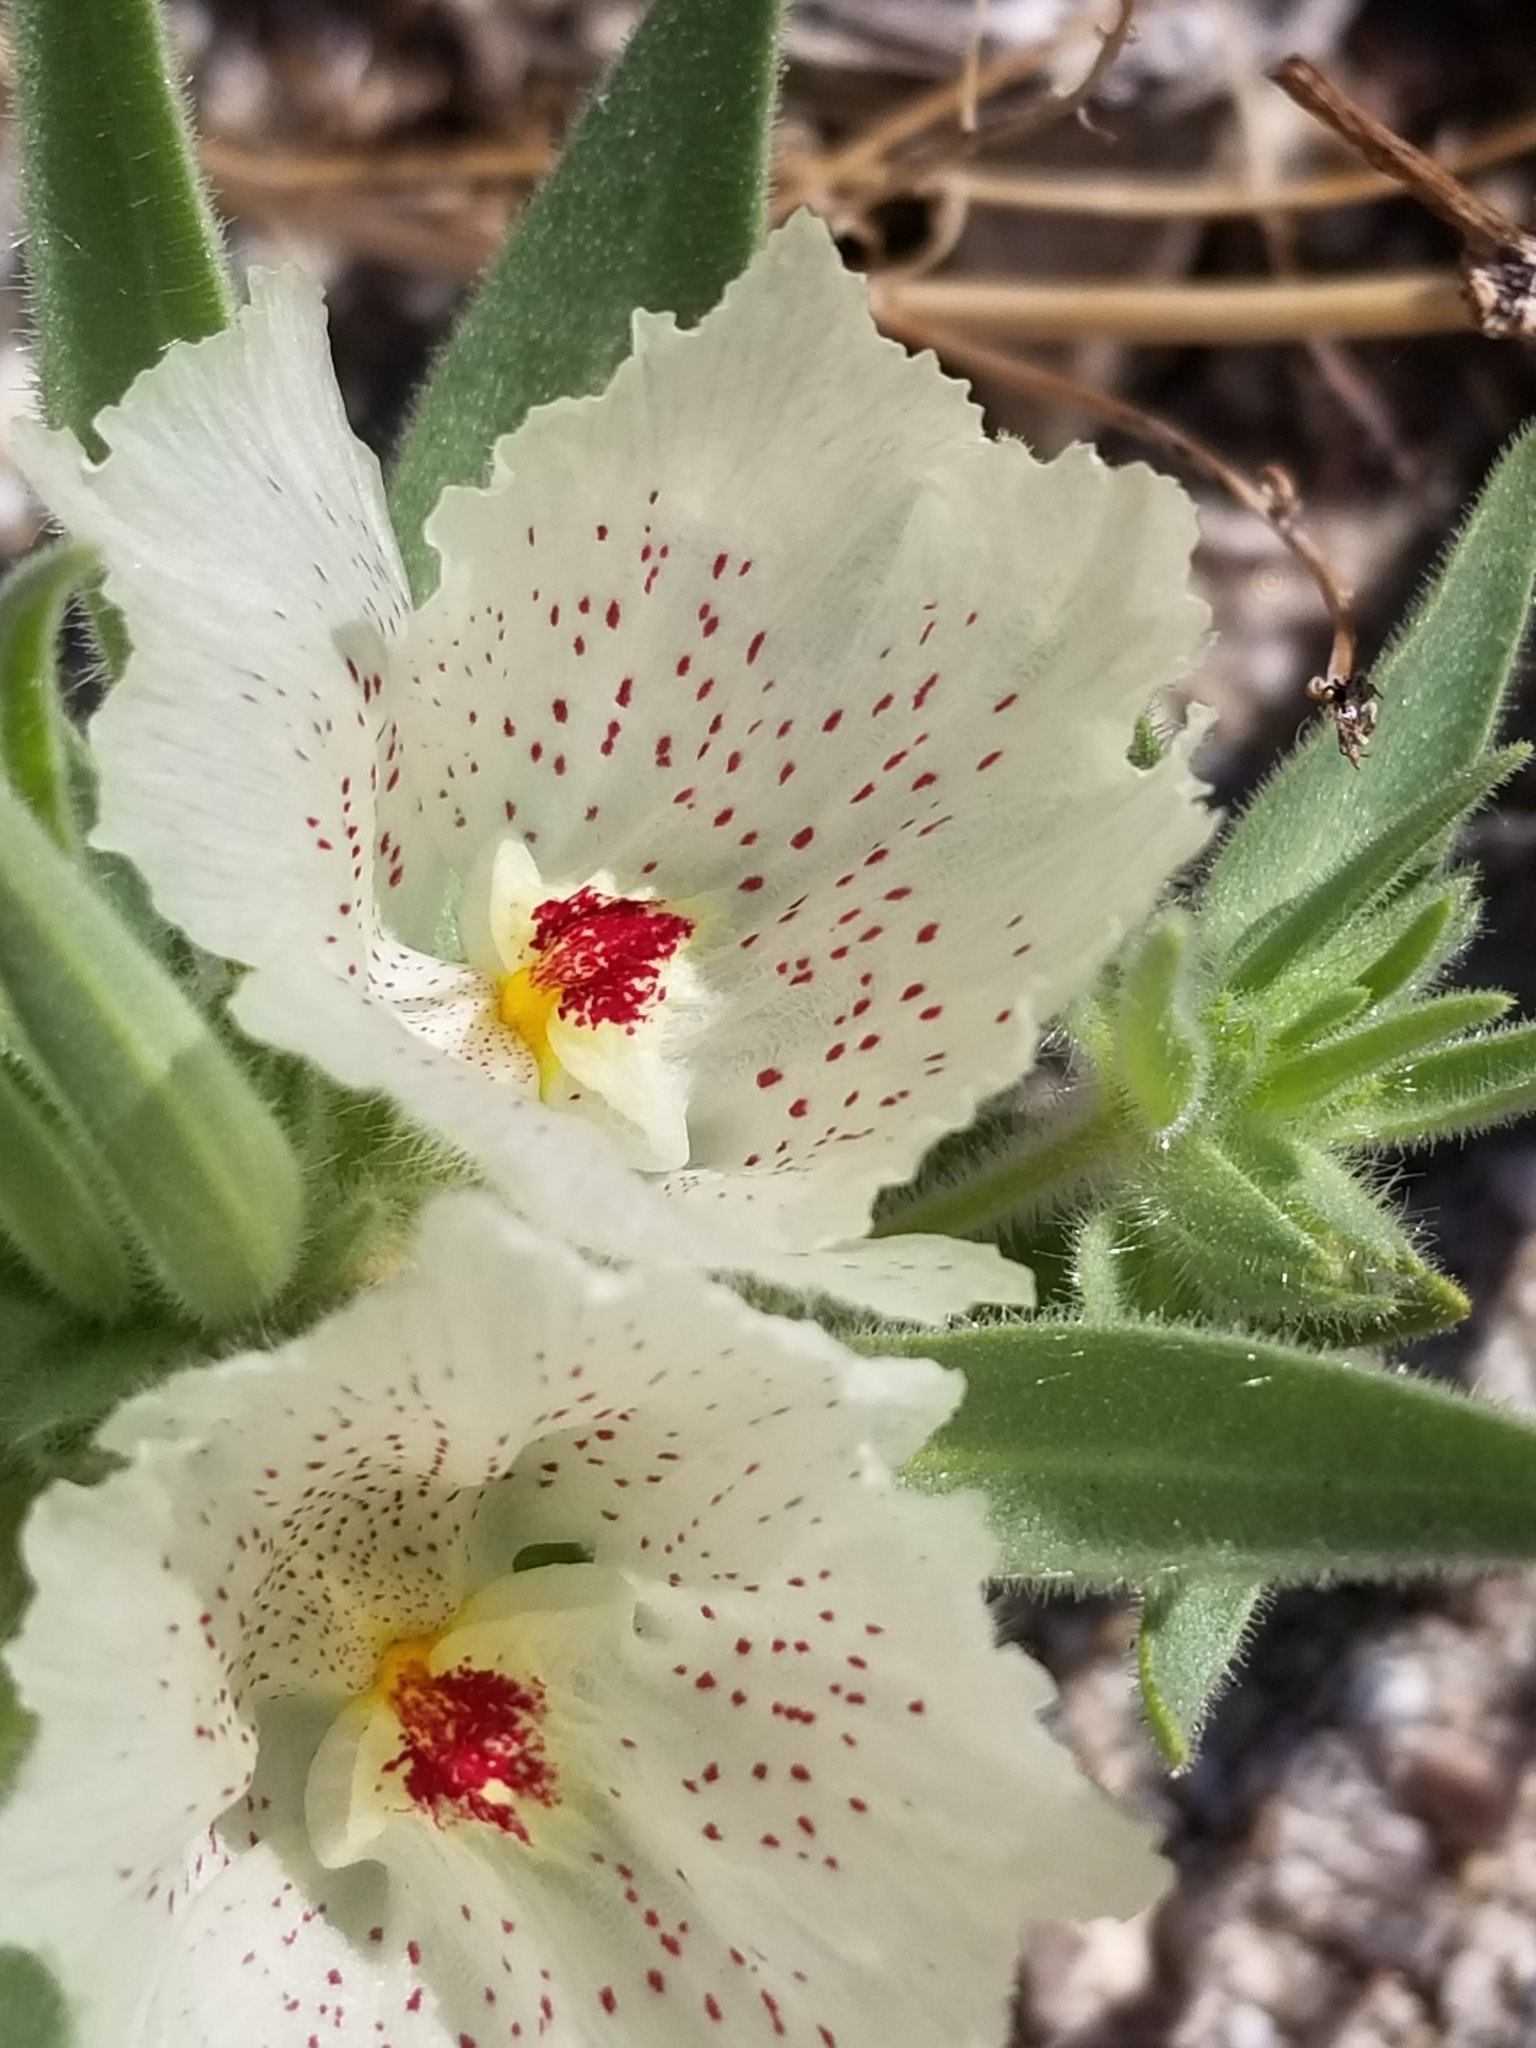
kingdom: Plantae
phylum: Tracheophyta
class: Magnoliopsida
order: Lamiales
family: Plantaginaceae
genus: Mohavea
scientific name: Mohavea confertiflora
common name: Ghost flower
